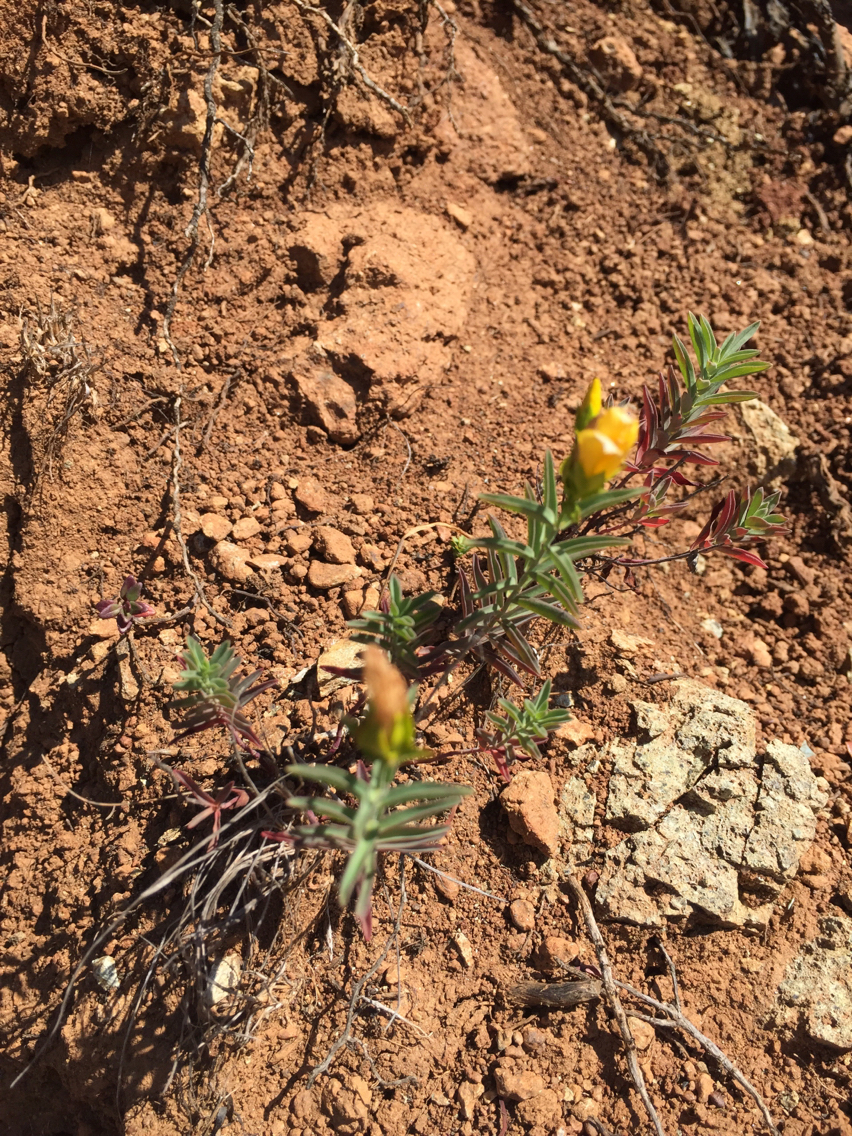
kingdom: Plantae
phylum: Tracheophyta
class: Magnoliopsida
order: Malpighiales
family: Hypericaceae
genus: Hypericum
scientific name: Hypericum concinnum
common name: Gold-wire
